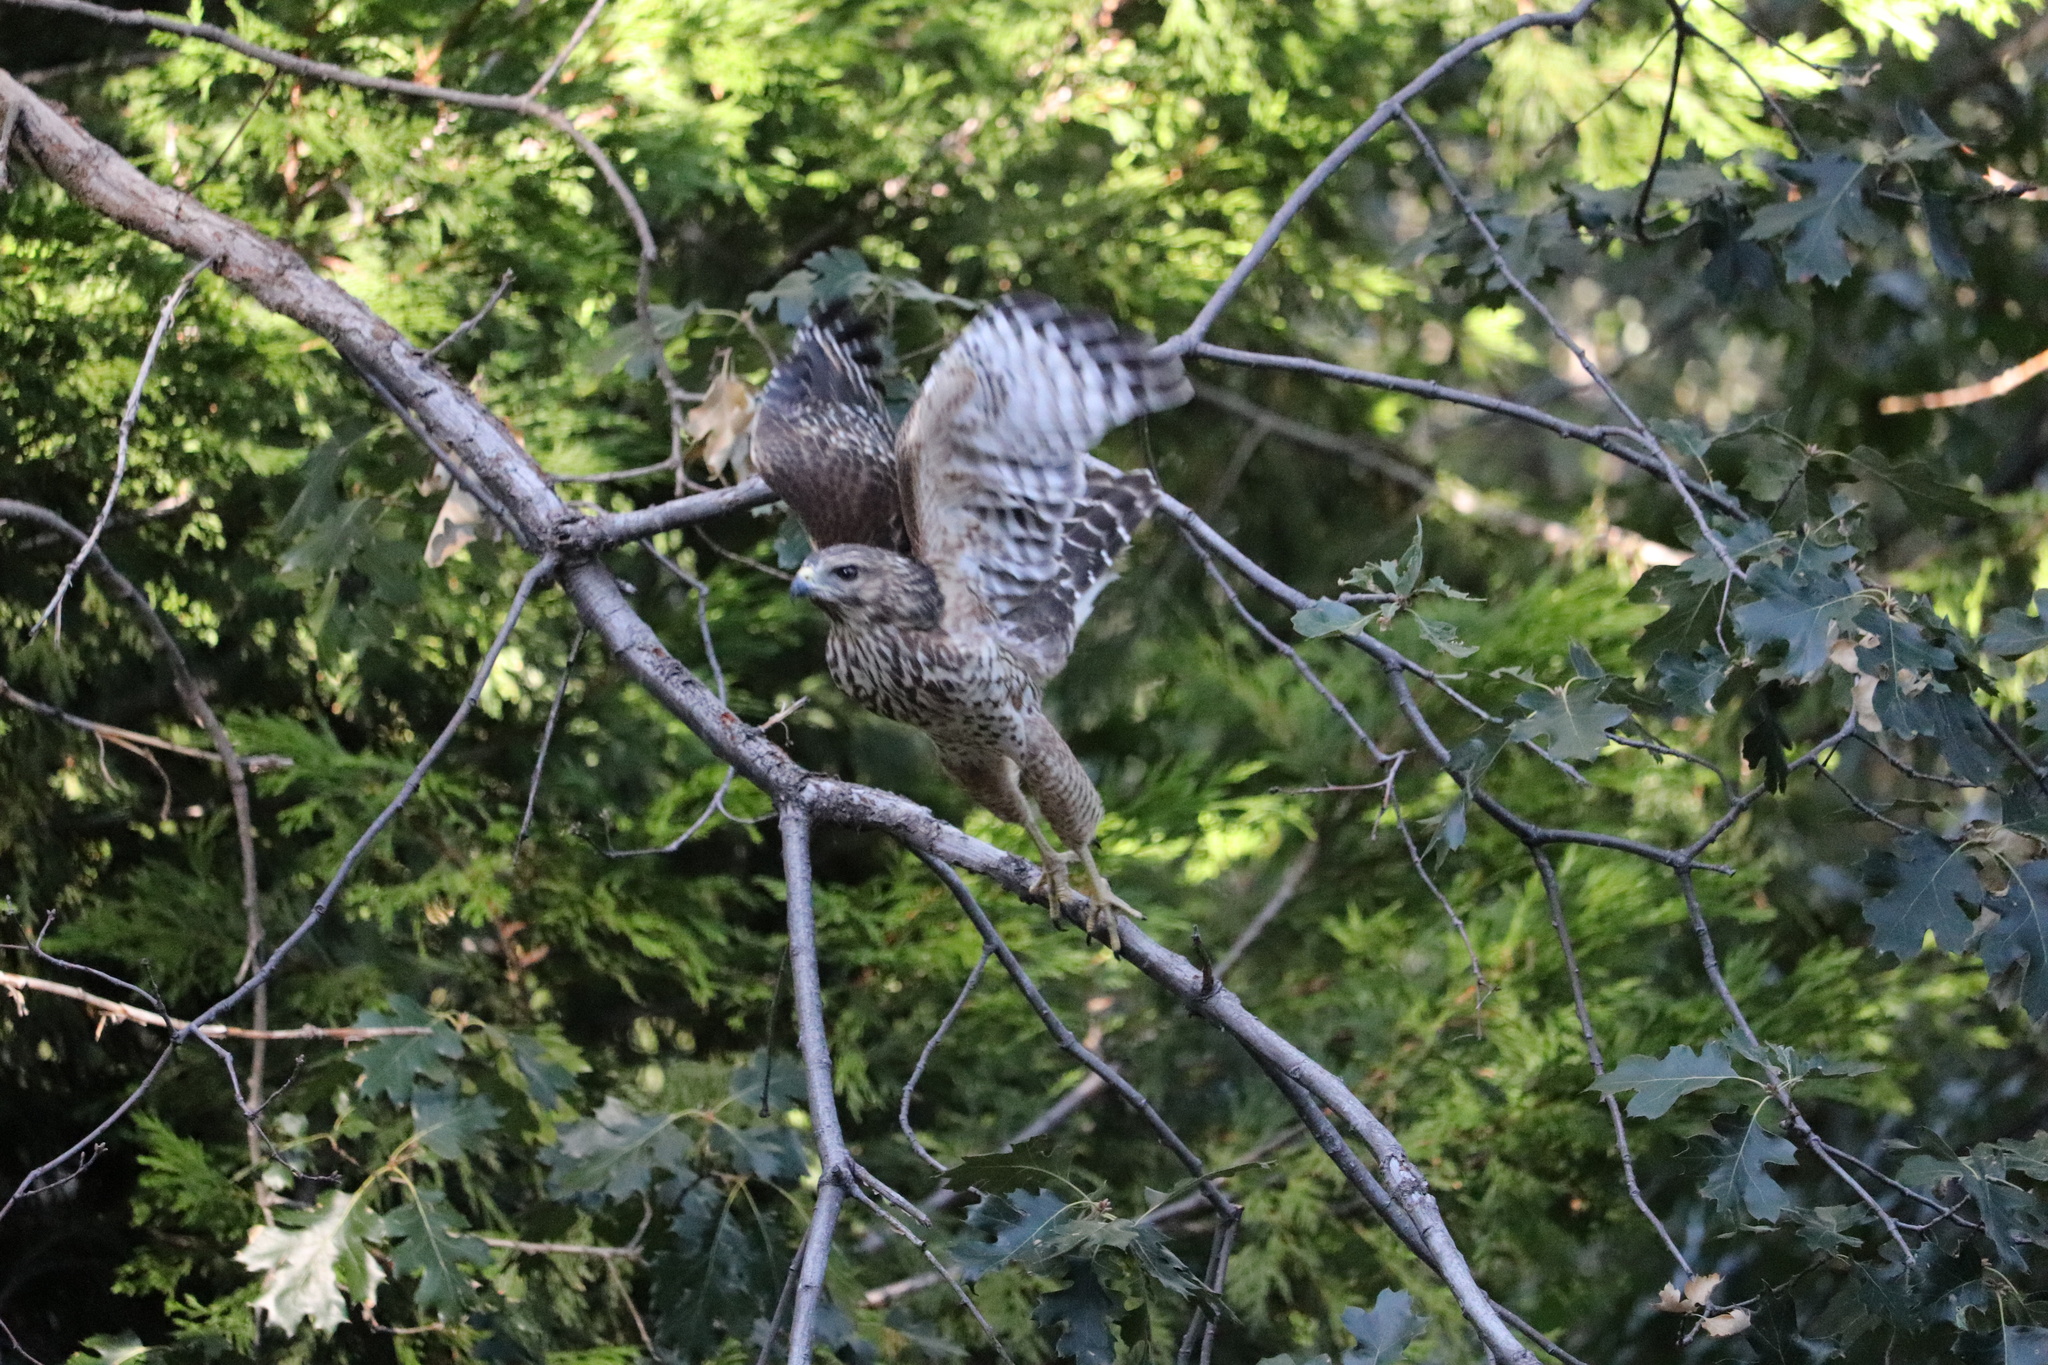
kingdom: Animalia
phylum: Chordata
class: Aves
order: Accipitriformes
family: Accipitridae
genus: Buteo
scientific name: Buteo lineatus
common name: Red-shouldered hawk
